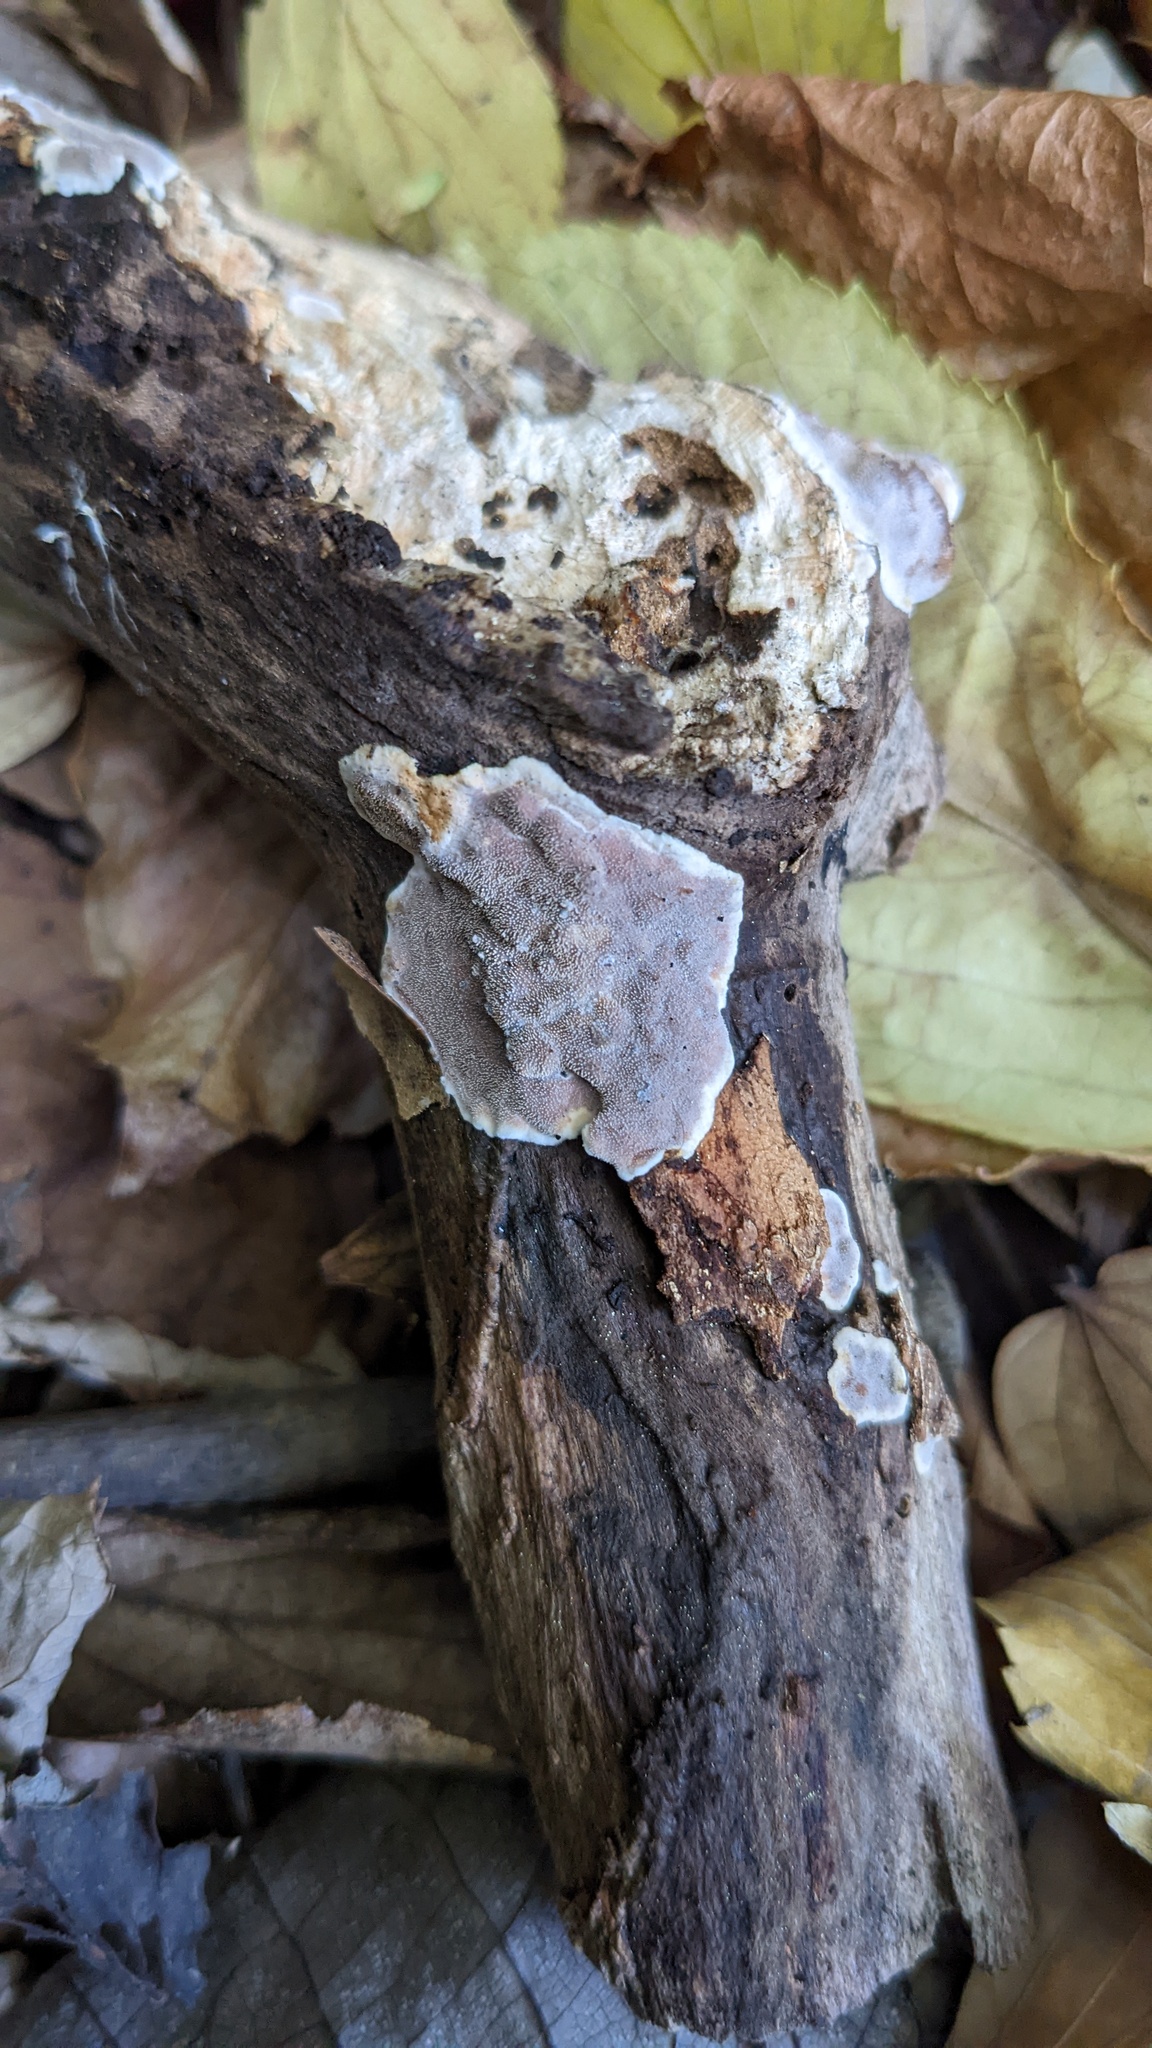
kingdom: Fungi
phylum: Basidiomycota
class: Agaricomycetes
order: Auriculariales
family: Auriculariaceae
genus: Heterochaete
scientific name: Heterochaete delicata
